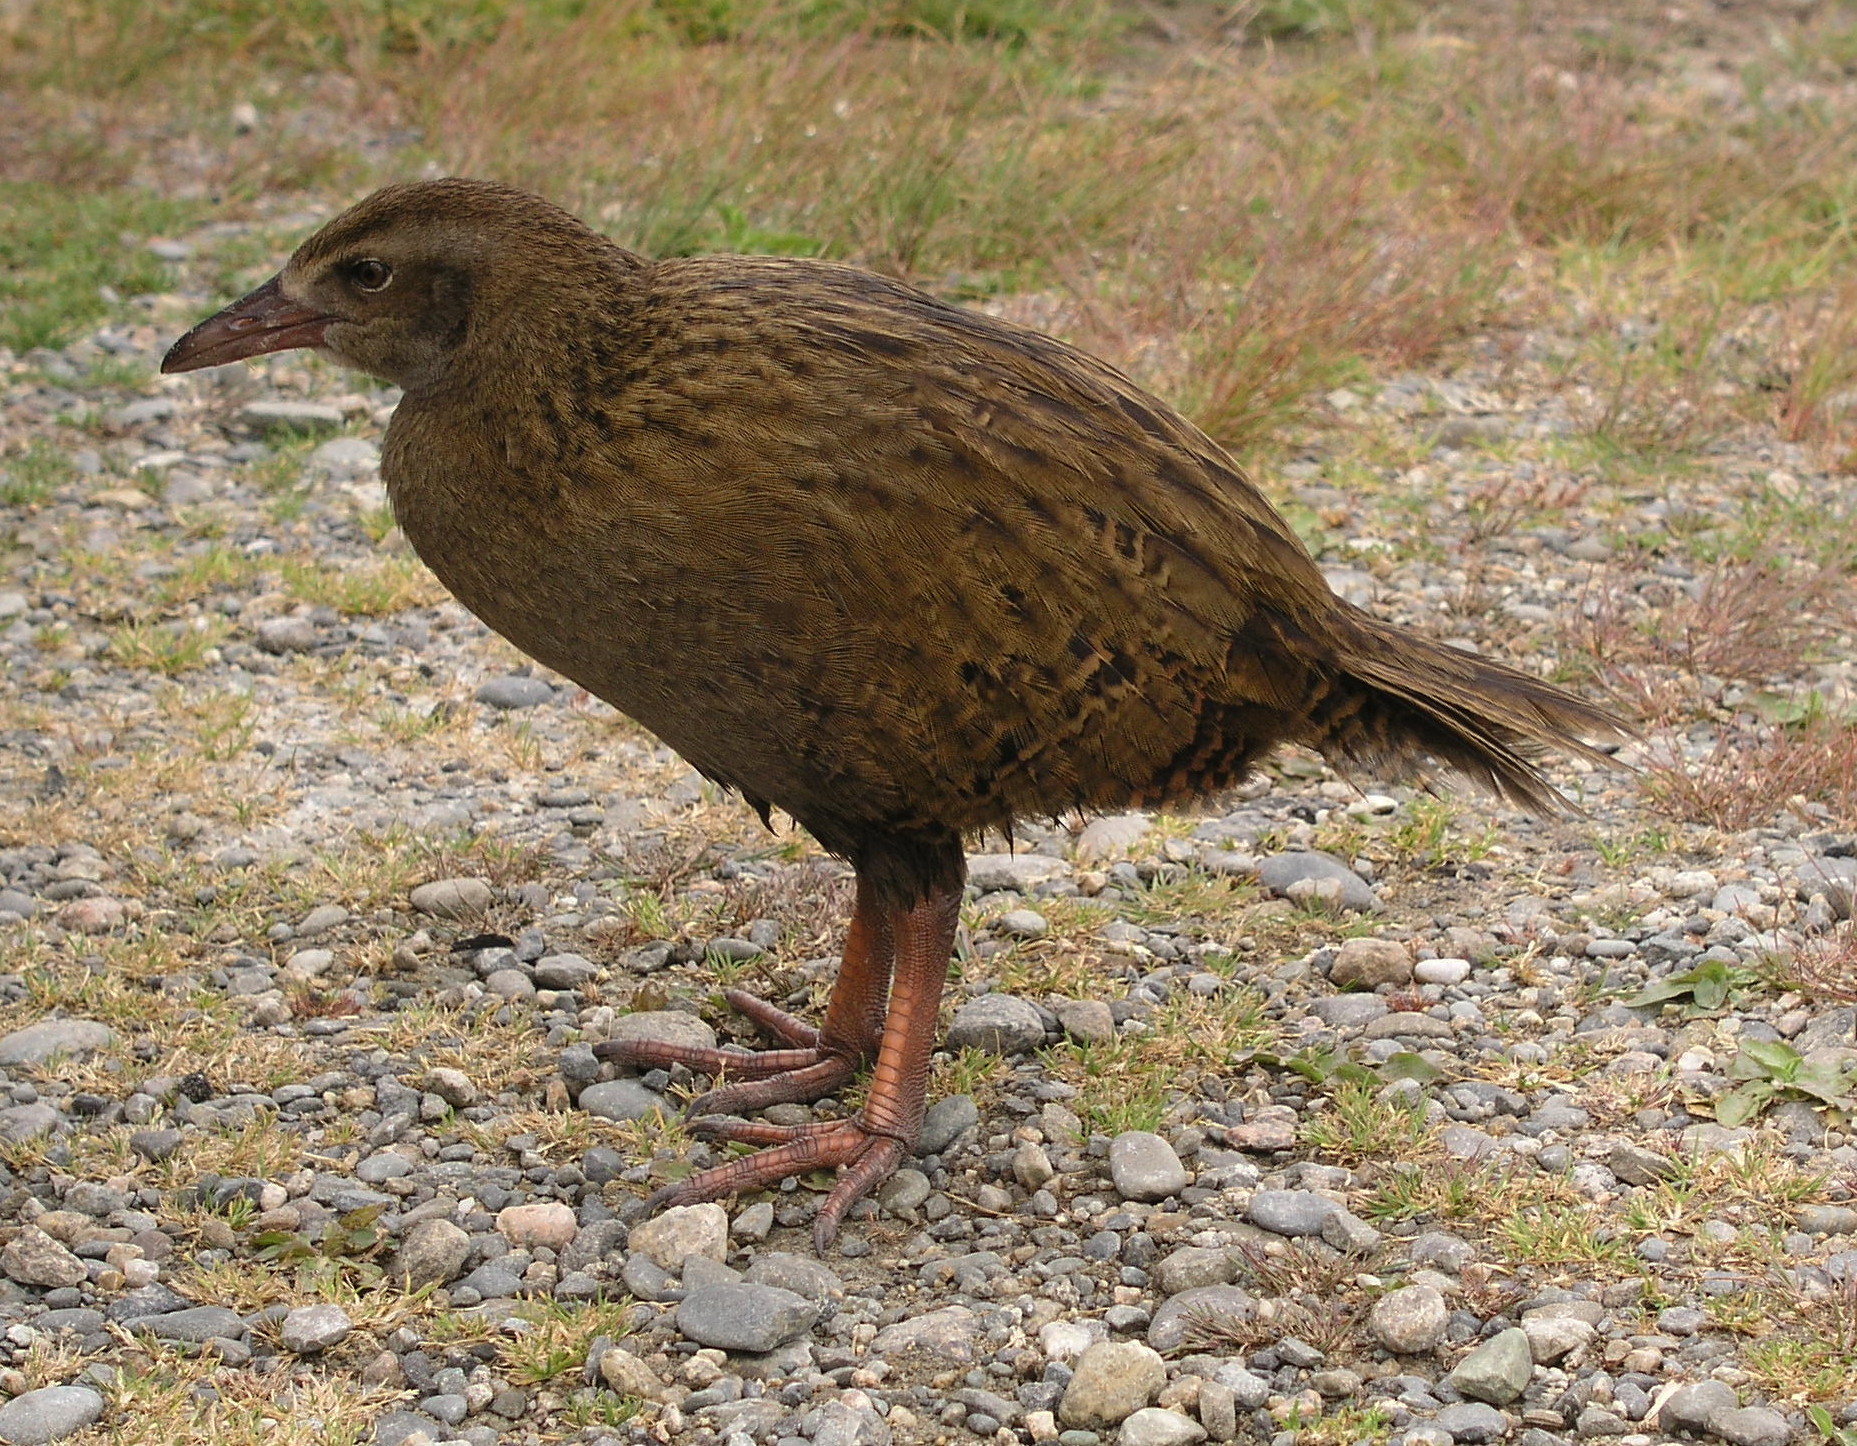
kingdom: Animalia
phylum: Chordata
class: Aves
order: Gruiformes
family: Rallidae
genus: Gallirallus
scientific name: Gallirallus australis
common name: Weka
